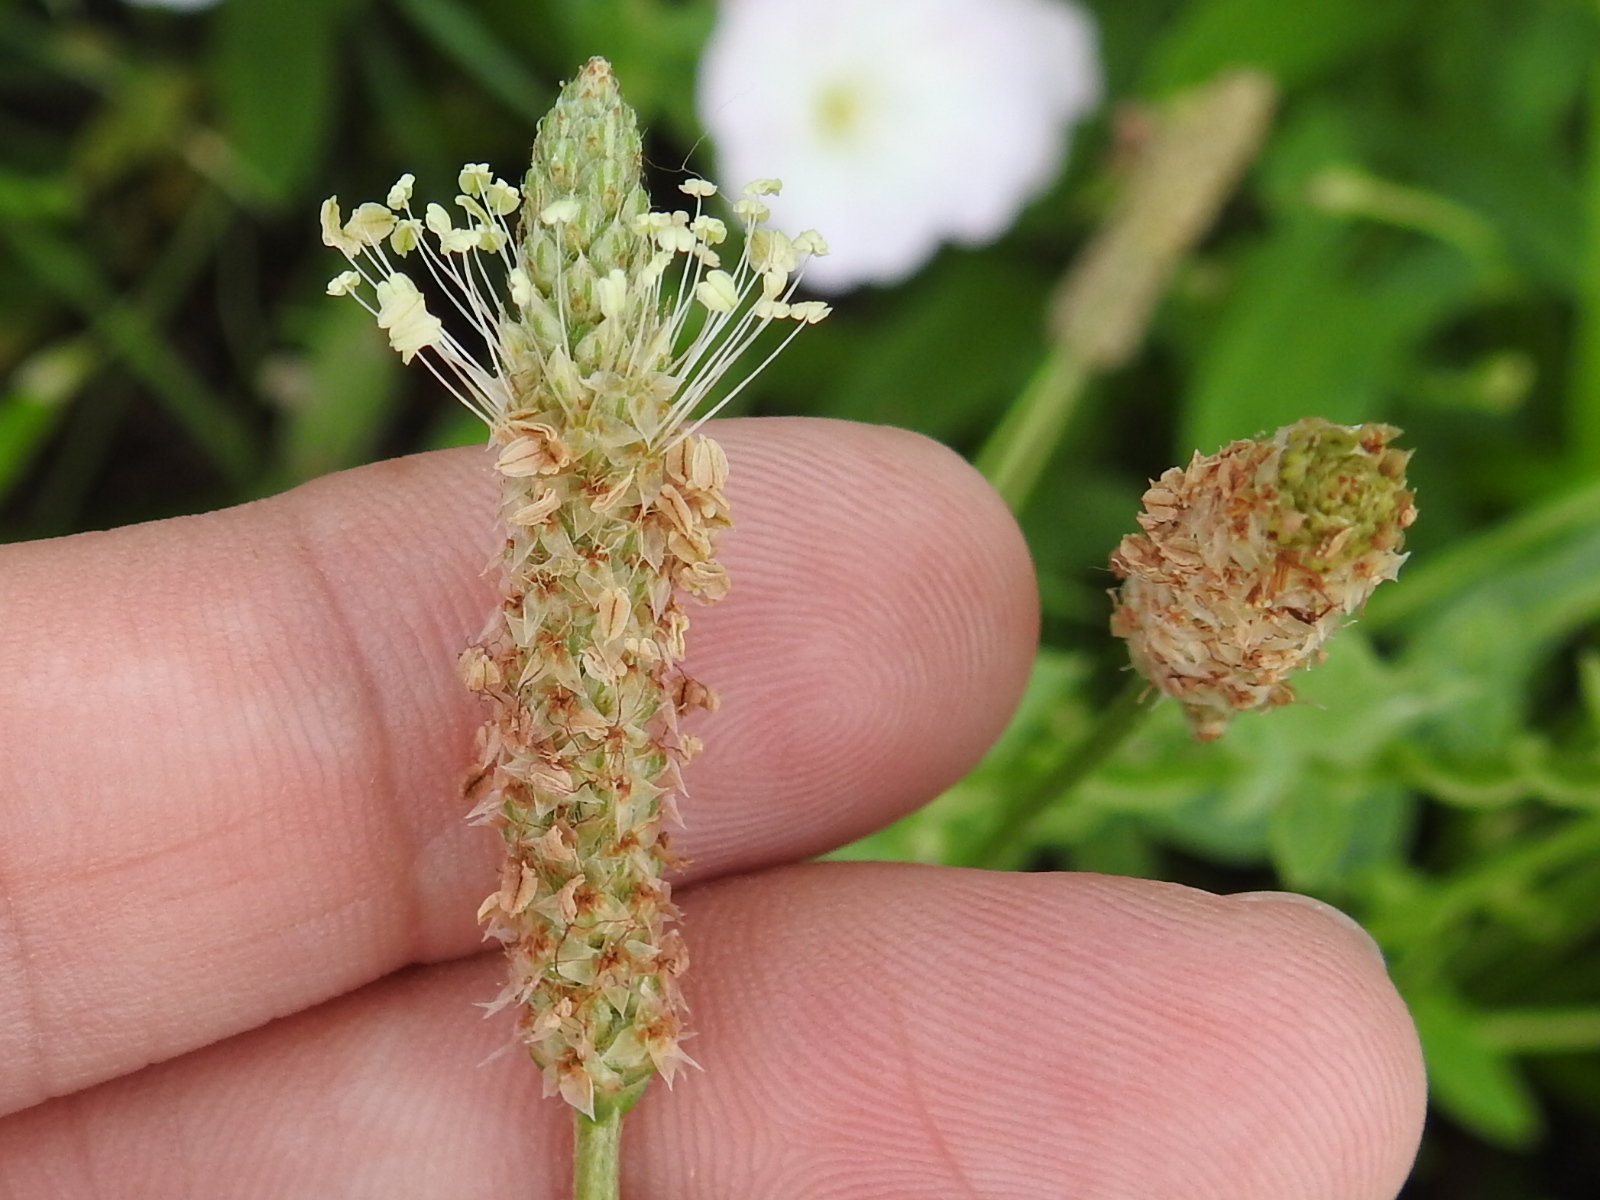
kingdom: Plantae
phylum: Tracheophyta
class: Magnoliopsida
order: Lamiales
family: Plantaginaceae
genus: Plantago
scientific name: Plantago lanceolata
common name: Ribwort plantain
